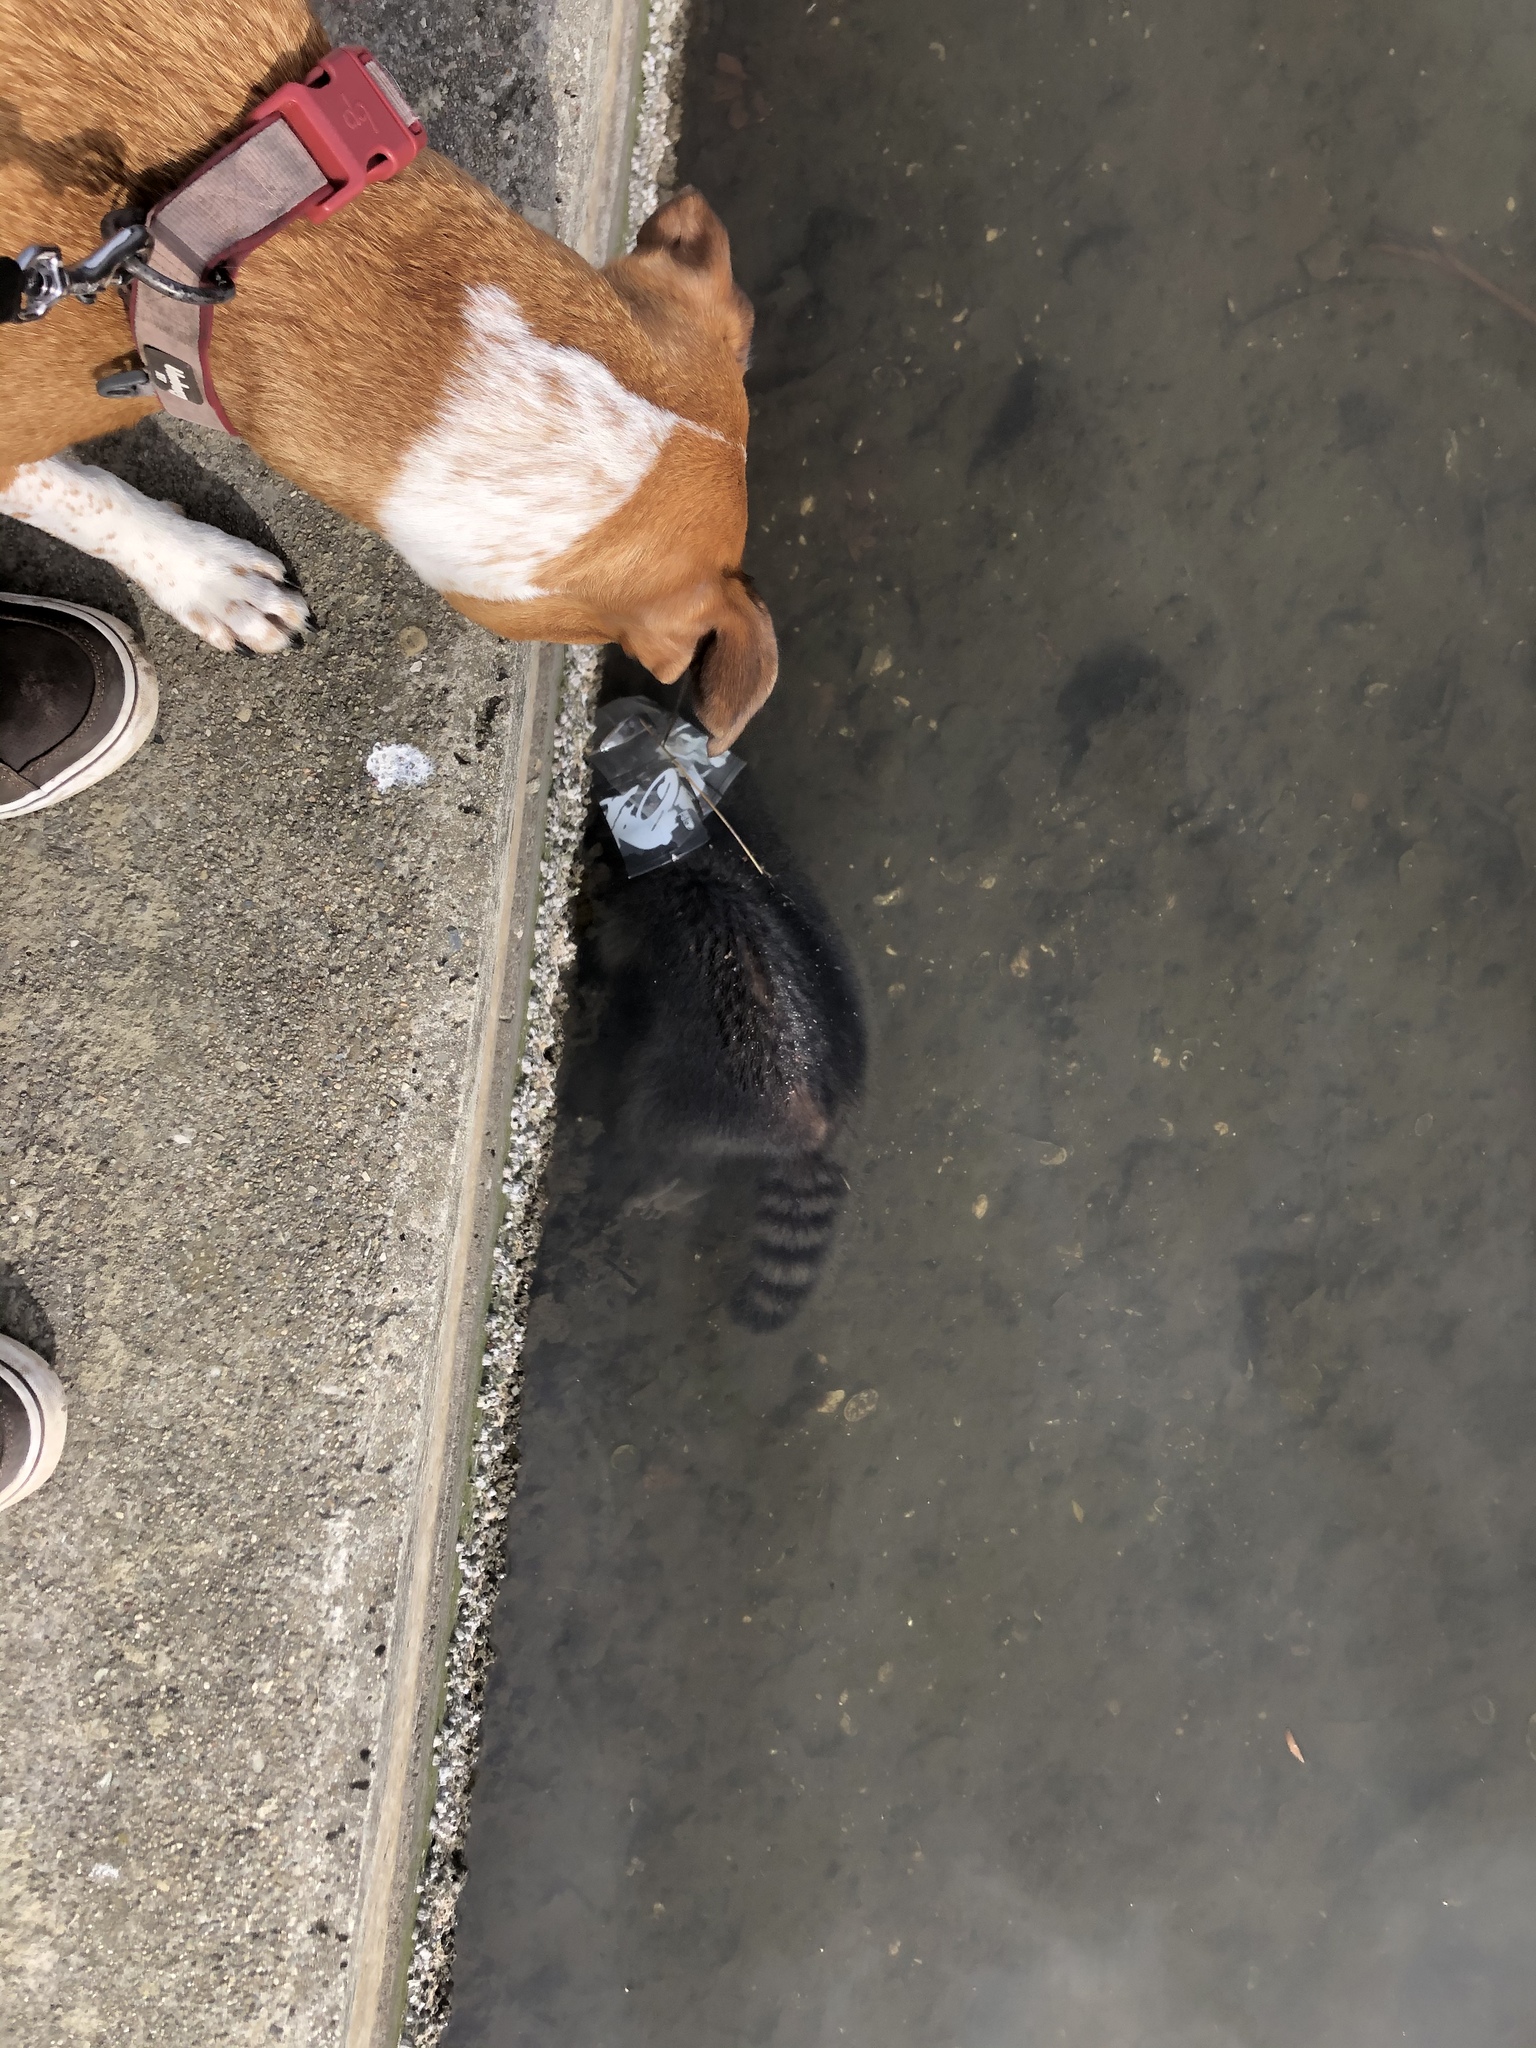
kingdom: Animalia
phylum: Chordata
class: Mammalia
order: Carnivora
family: Procyonidae
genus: Procyon
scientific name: Procyon lotor
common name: Raccoon
